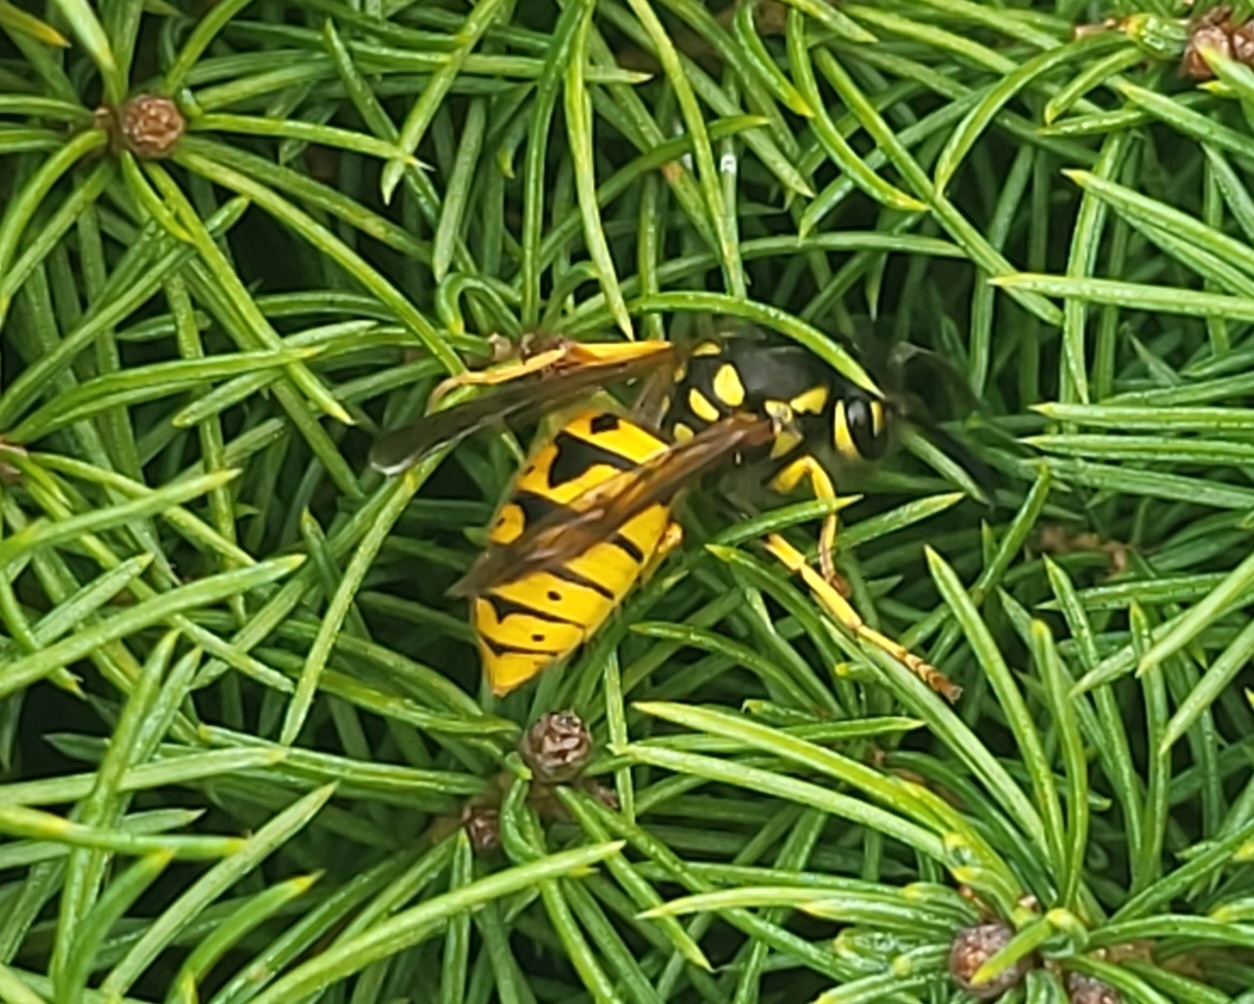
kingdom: Animalia
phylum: Arthropoda
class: Insecta
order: Hymenoptera
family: Vespidae
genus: Vespula
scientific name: Vespula germanica
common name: German wasp
